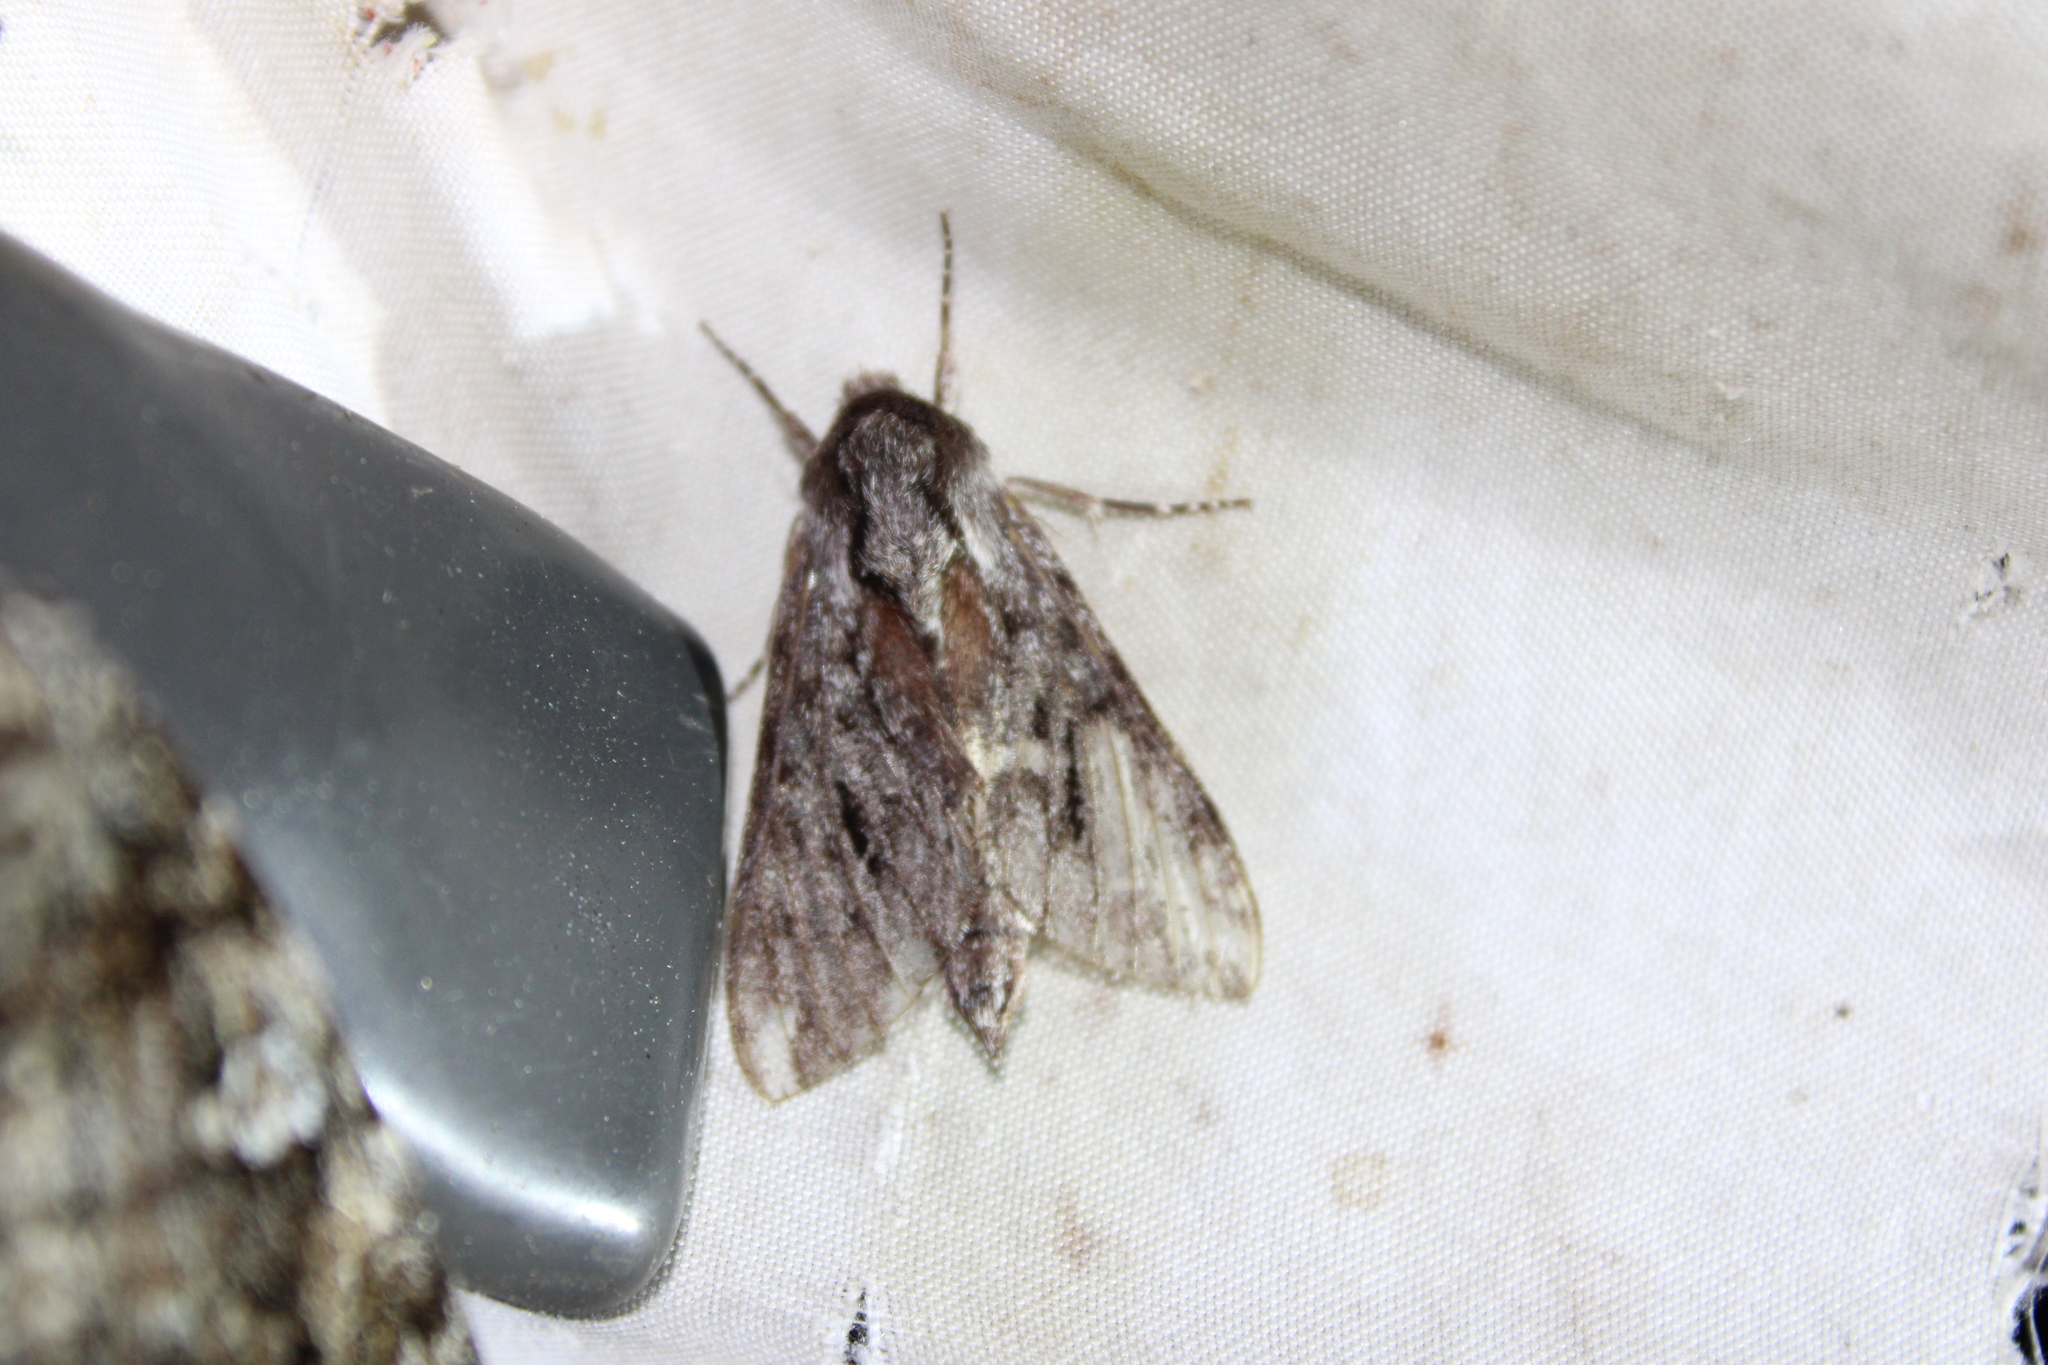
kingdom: Animalia
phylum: Arthropoda
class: Insecta
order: Lepidoptera
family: Sphingidae
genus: Lapara
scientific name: Lapara bombycoides
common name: Northern pine sphinx
